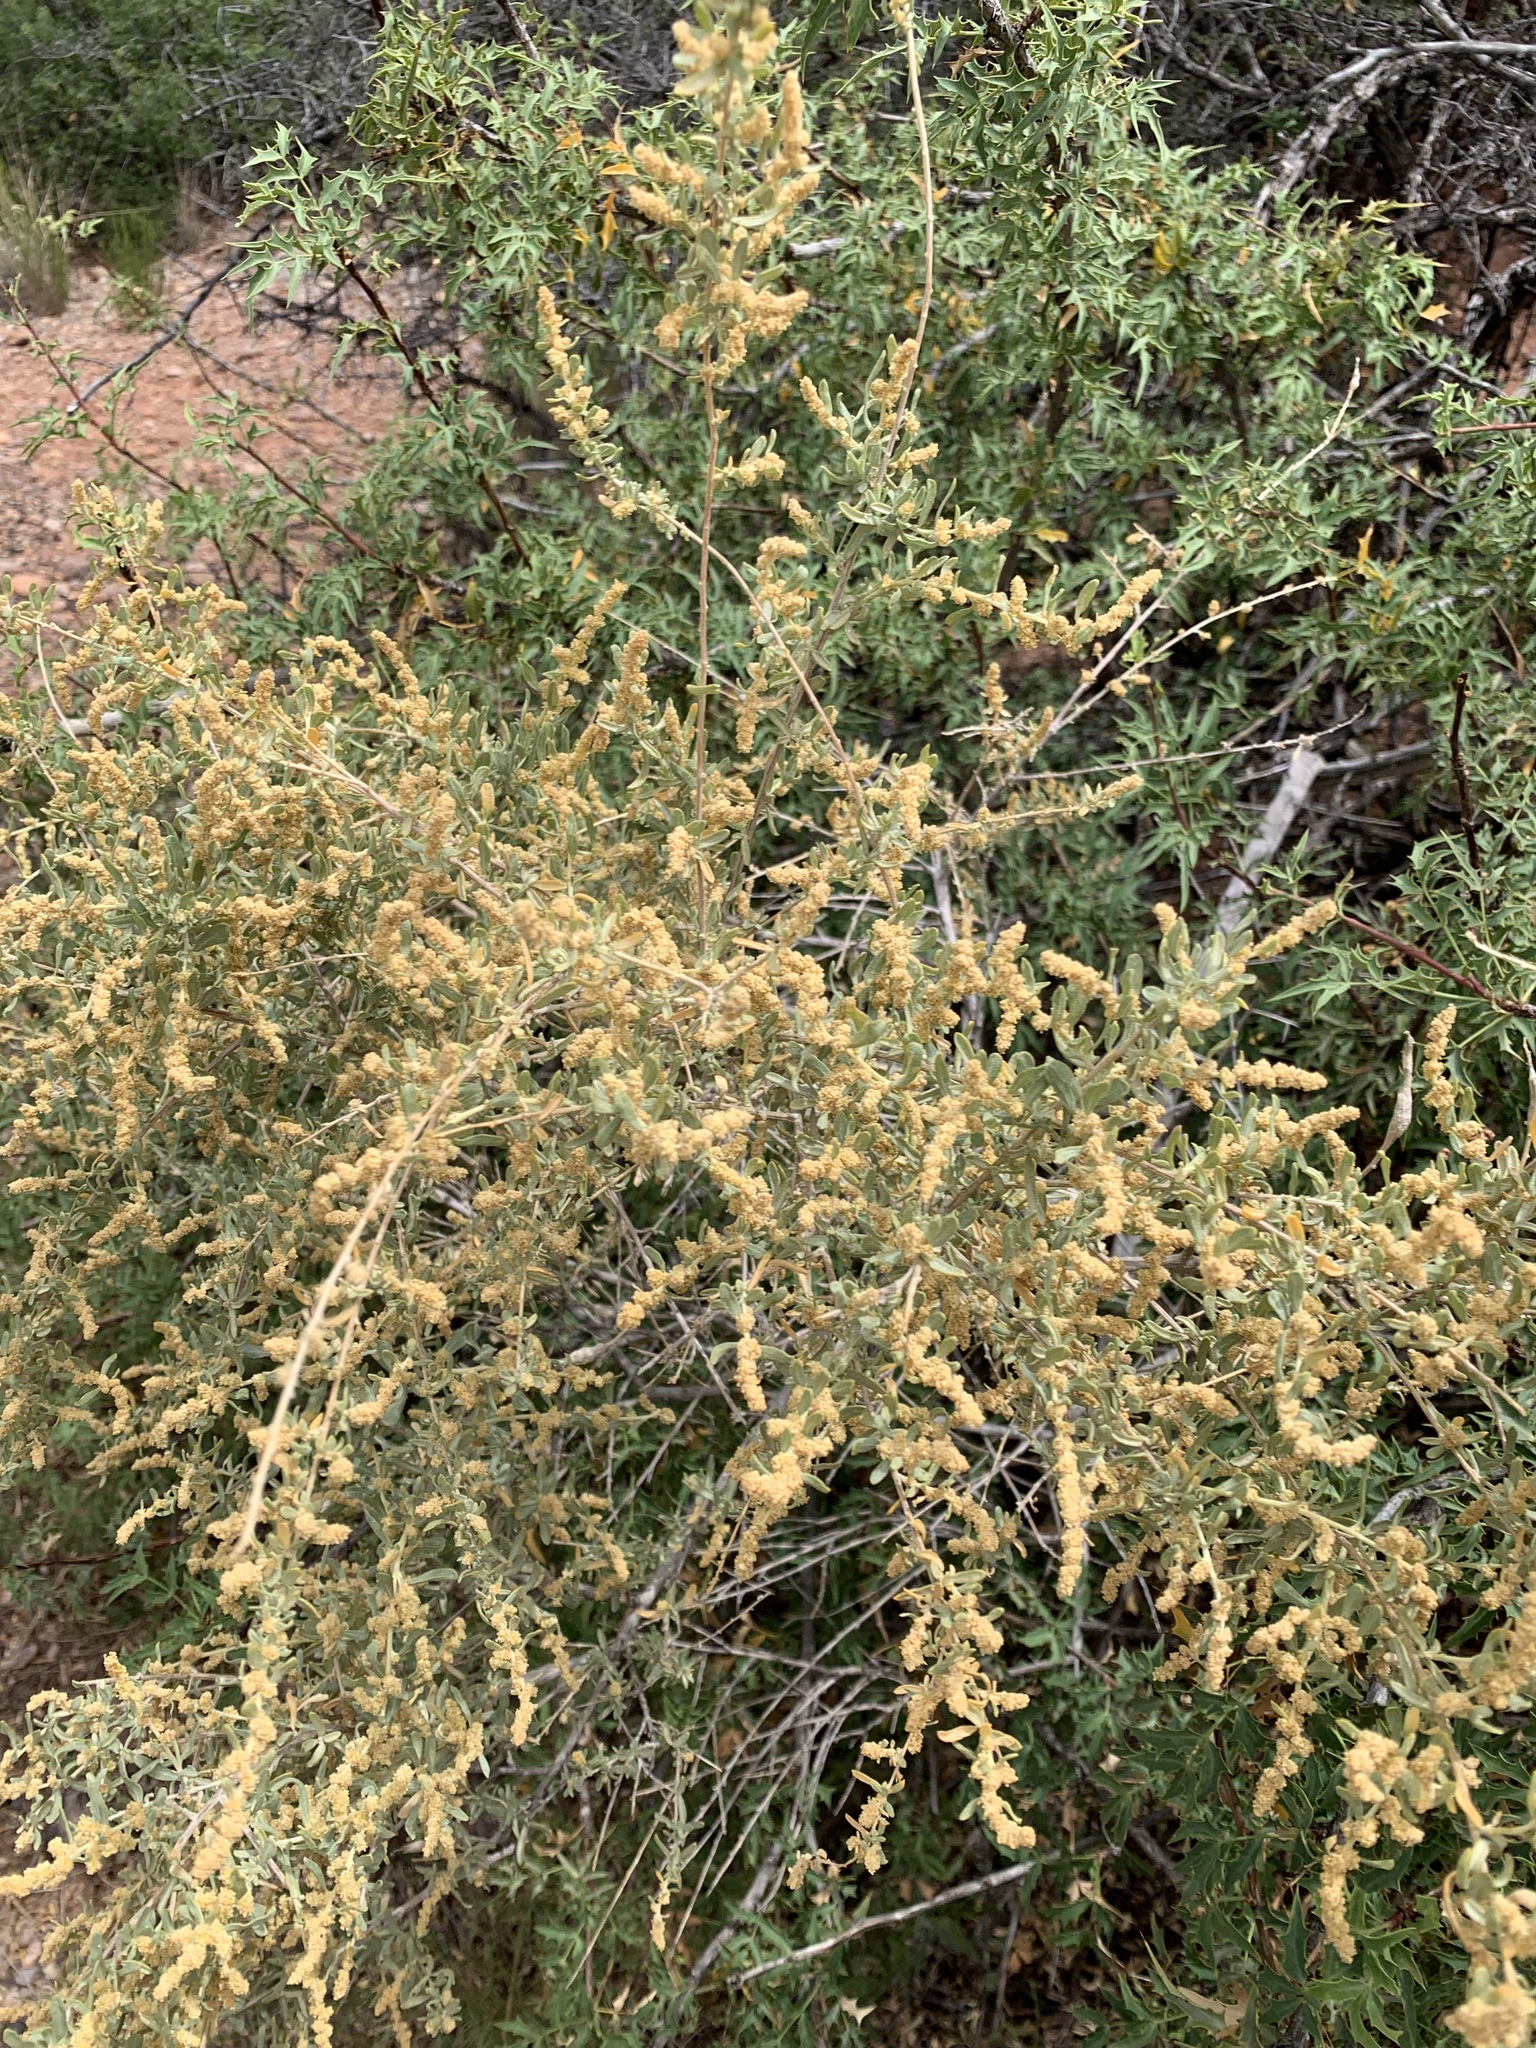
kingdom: Plantae
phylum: Tracheophyta
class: Magnoliopsida
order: Caryophyllales
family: Amaranthaceae
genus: Atriplex
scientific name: Atriplex canescens
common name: Four-wing saltbush
